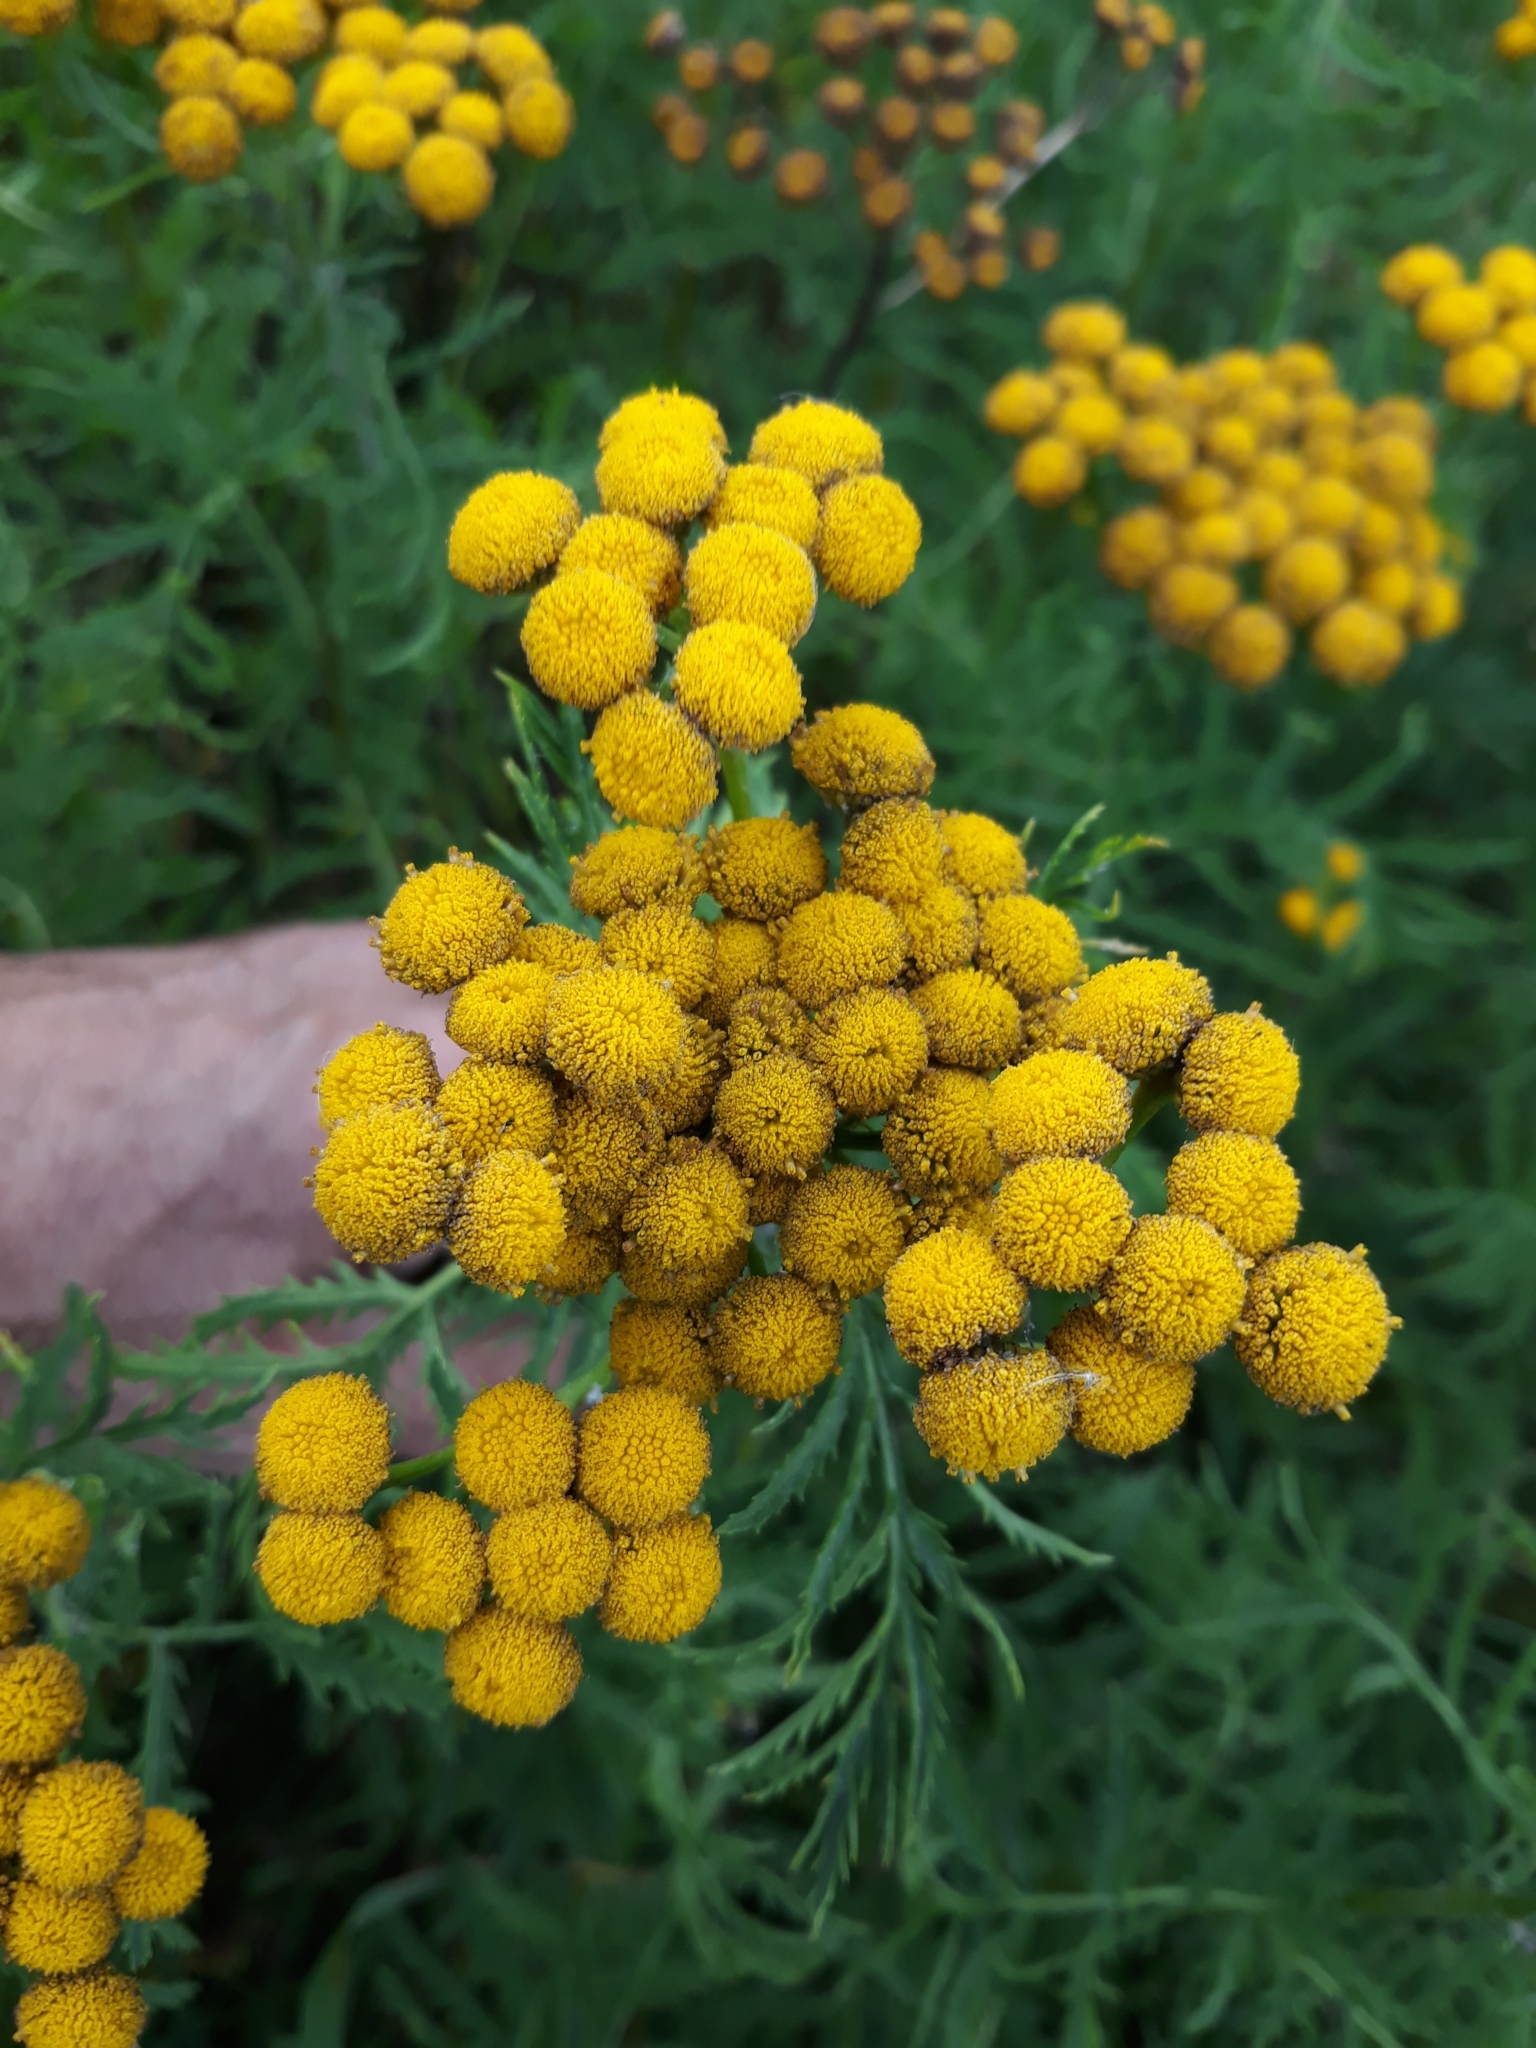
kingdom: Plantae
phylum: Tracheophyta
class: Magnoliopsida
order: Asterales
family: Asteraceae
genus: Tanacetum
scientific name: Tanacetum vulgare
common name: Common tansy
